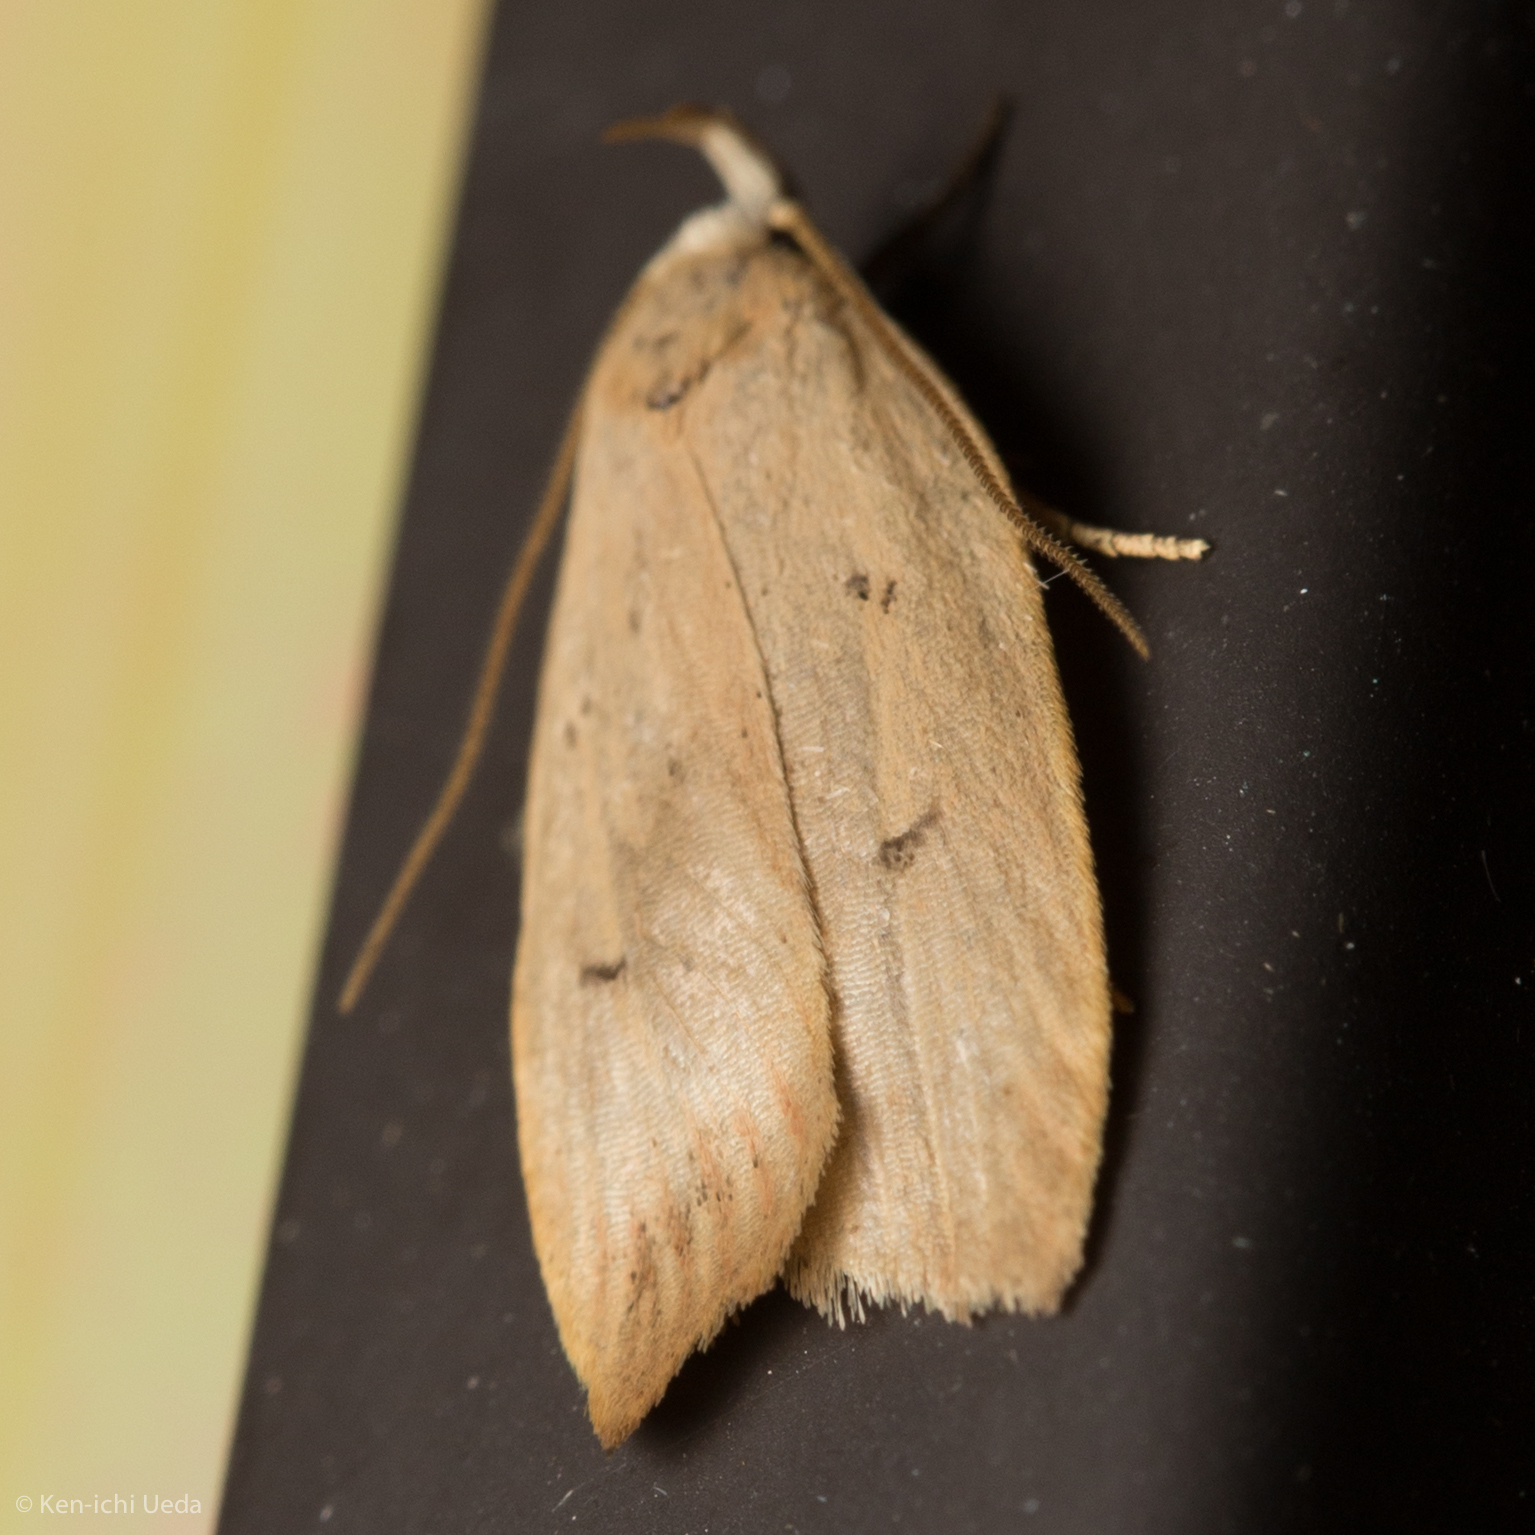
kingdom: Animalia
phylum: Arthropoda
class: Insecta
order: Lepidoptera
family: Peleopodidae
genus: Machimia
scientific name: Machimia tentoriferella
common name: Gold-striped leaftier moth
